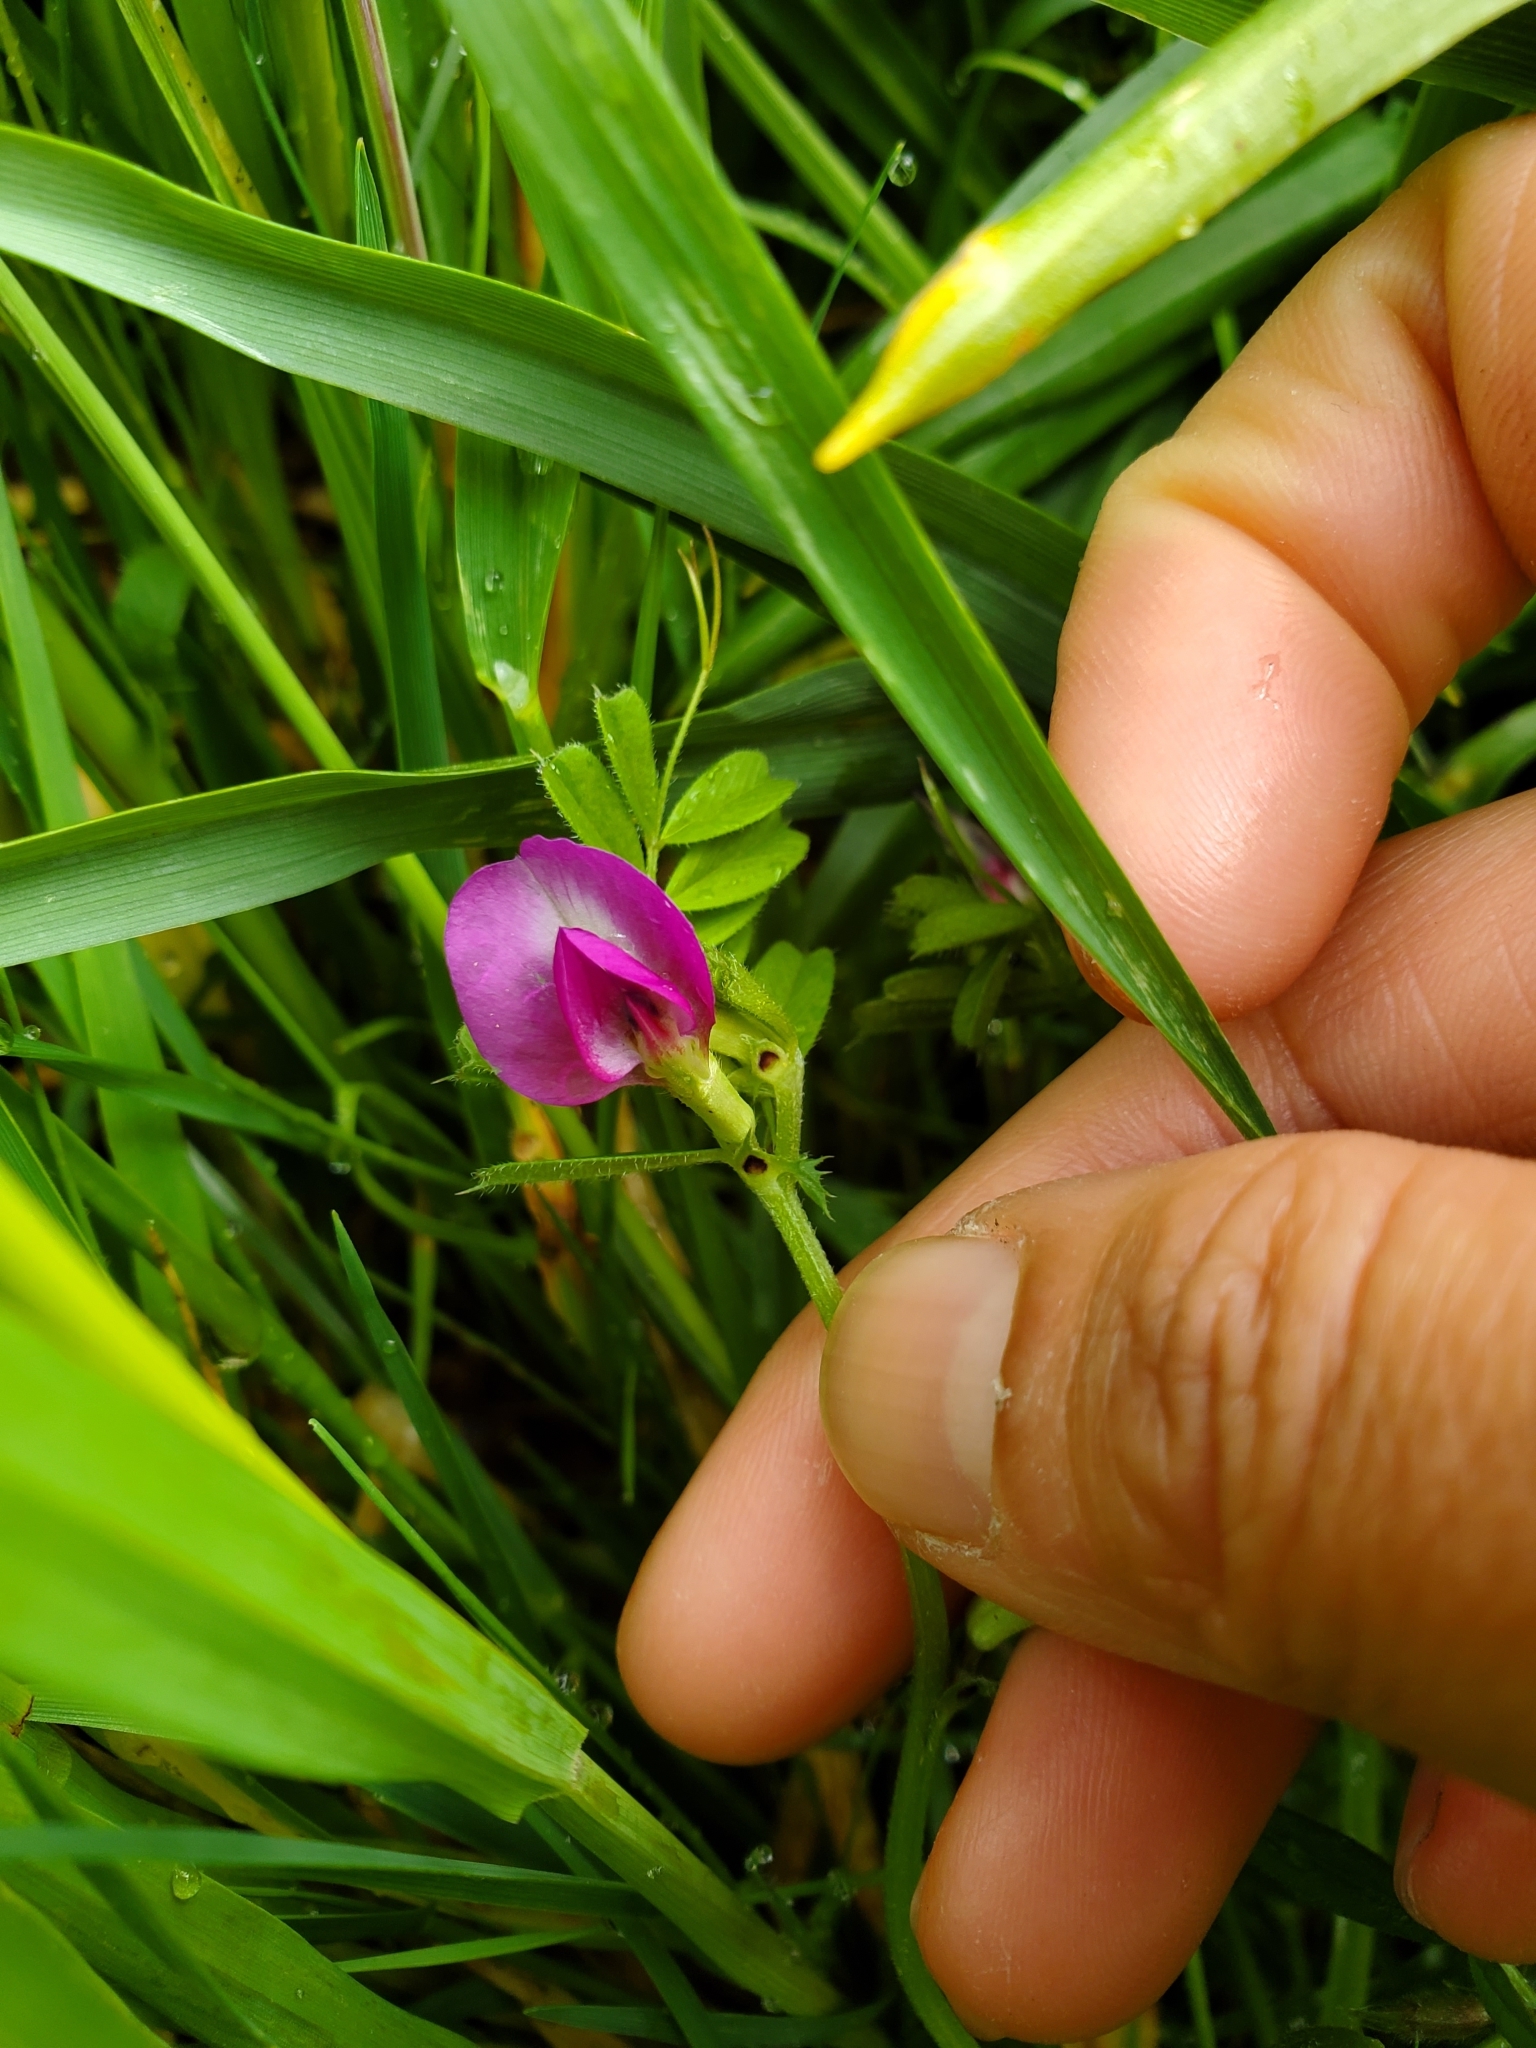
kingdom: Plantae
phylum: Tracheophyta
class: Magnoliopsida
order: Fabales
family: Fabaceae
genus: Vicia
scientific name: Vicia sativa
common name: Garden vetch
